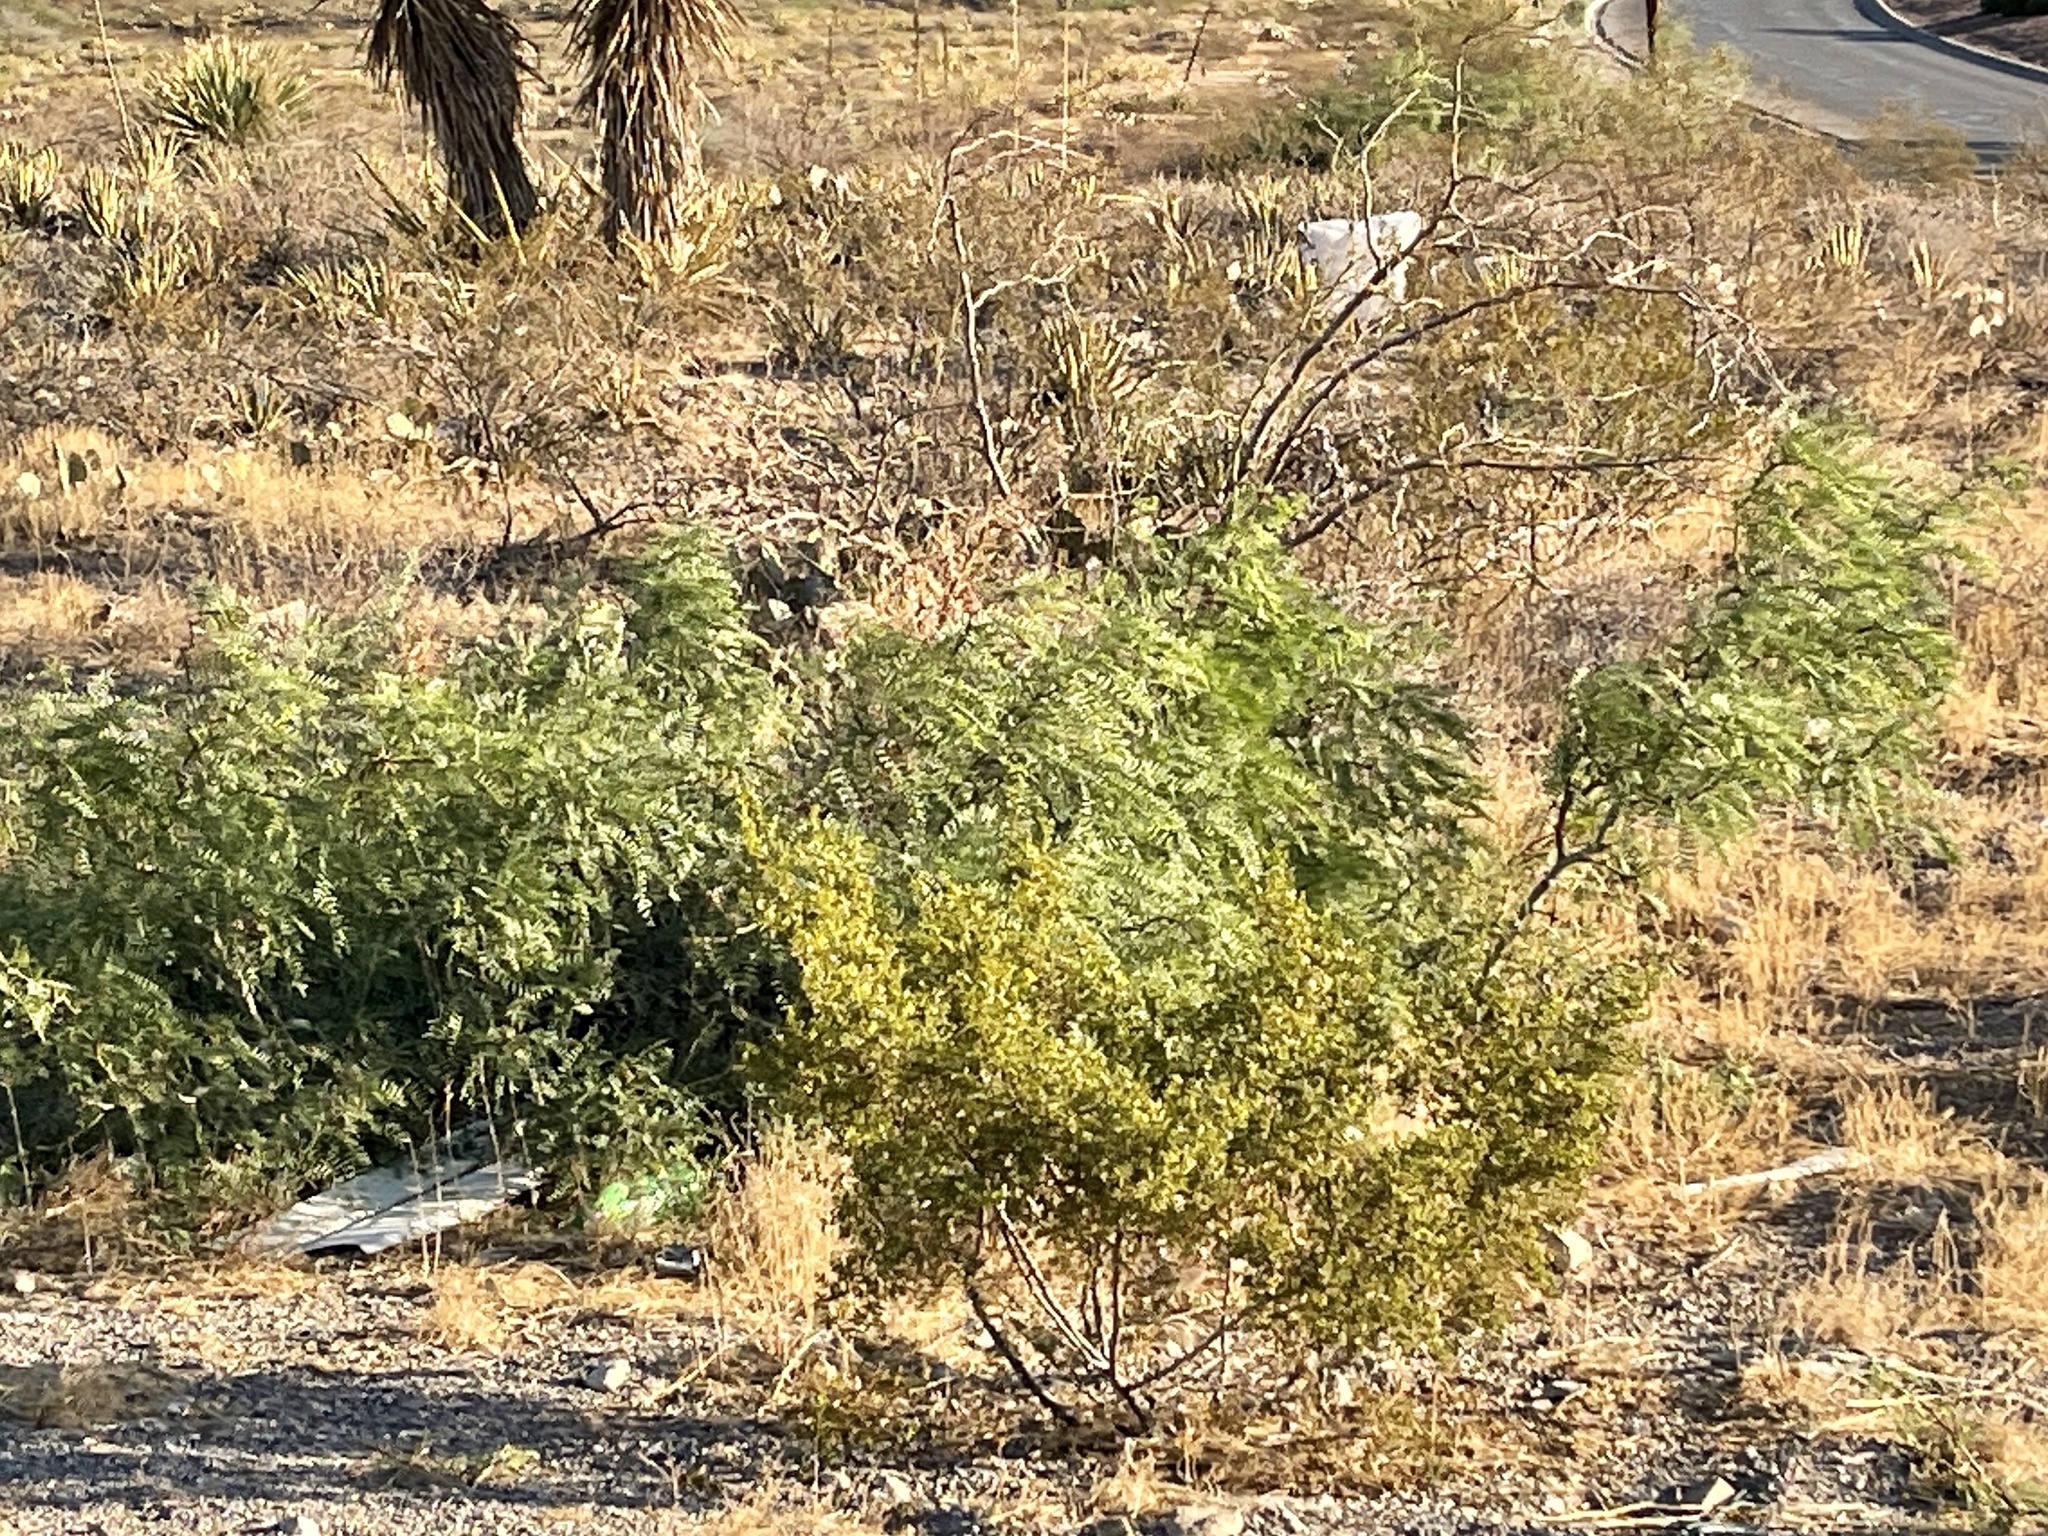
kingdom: Plantae
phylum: Tracheophyta
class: Magnoliopsida
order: Fabales
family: Fabaceae
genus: Prosopis
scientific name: Prosopis glandulosa
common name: Honey mesquite
